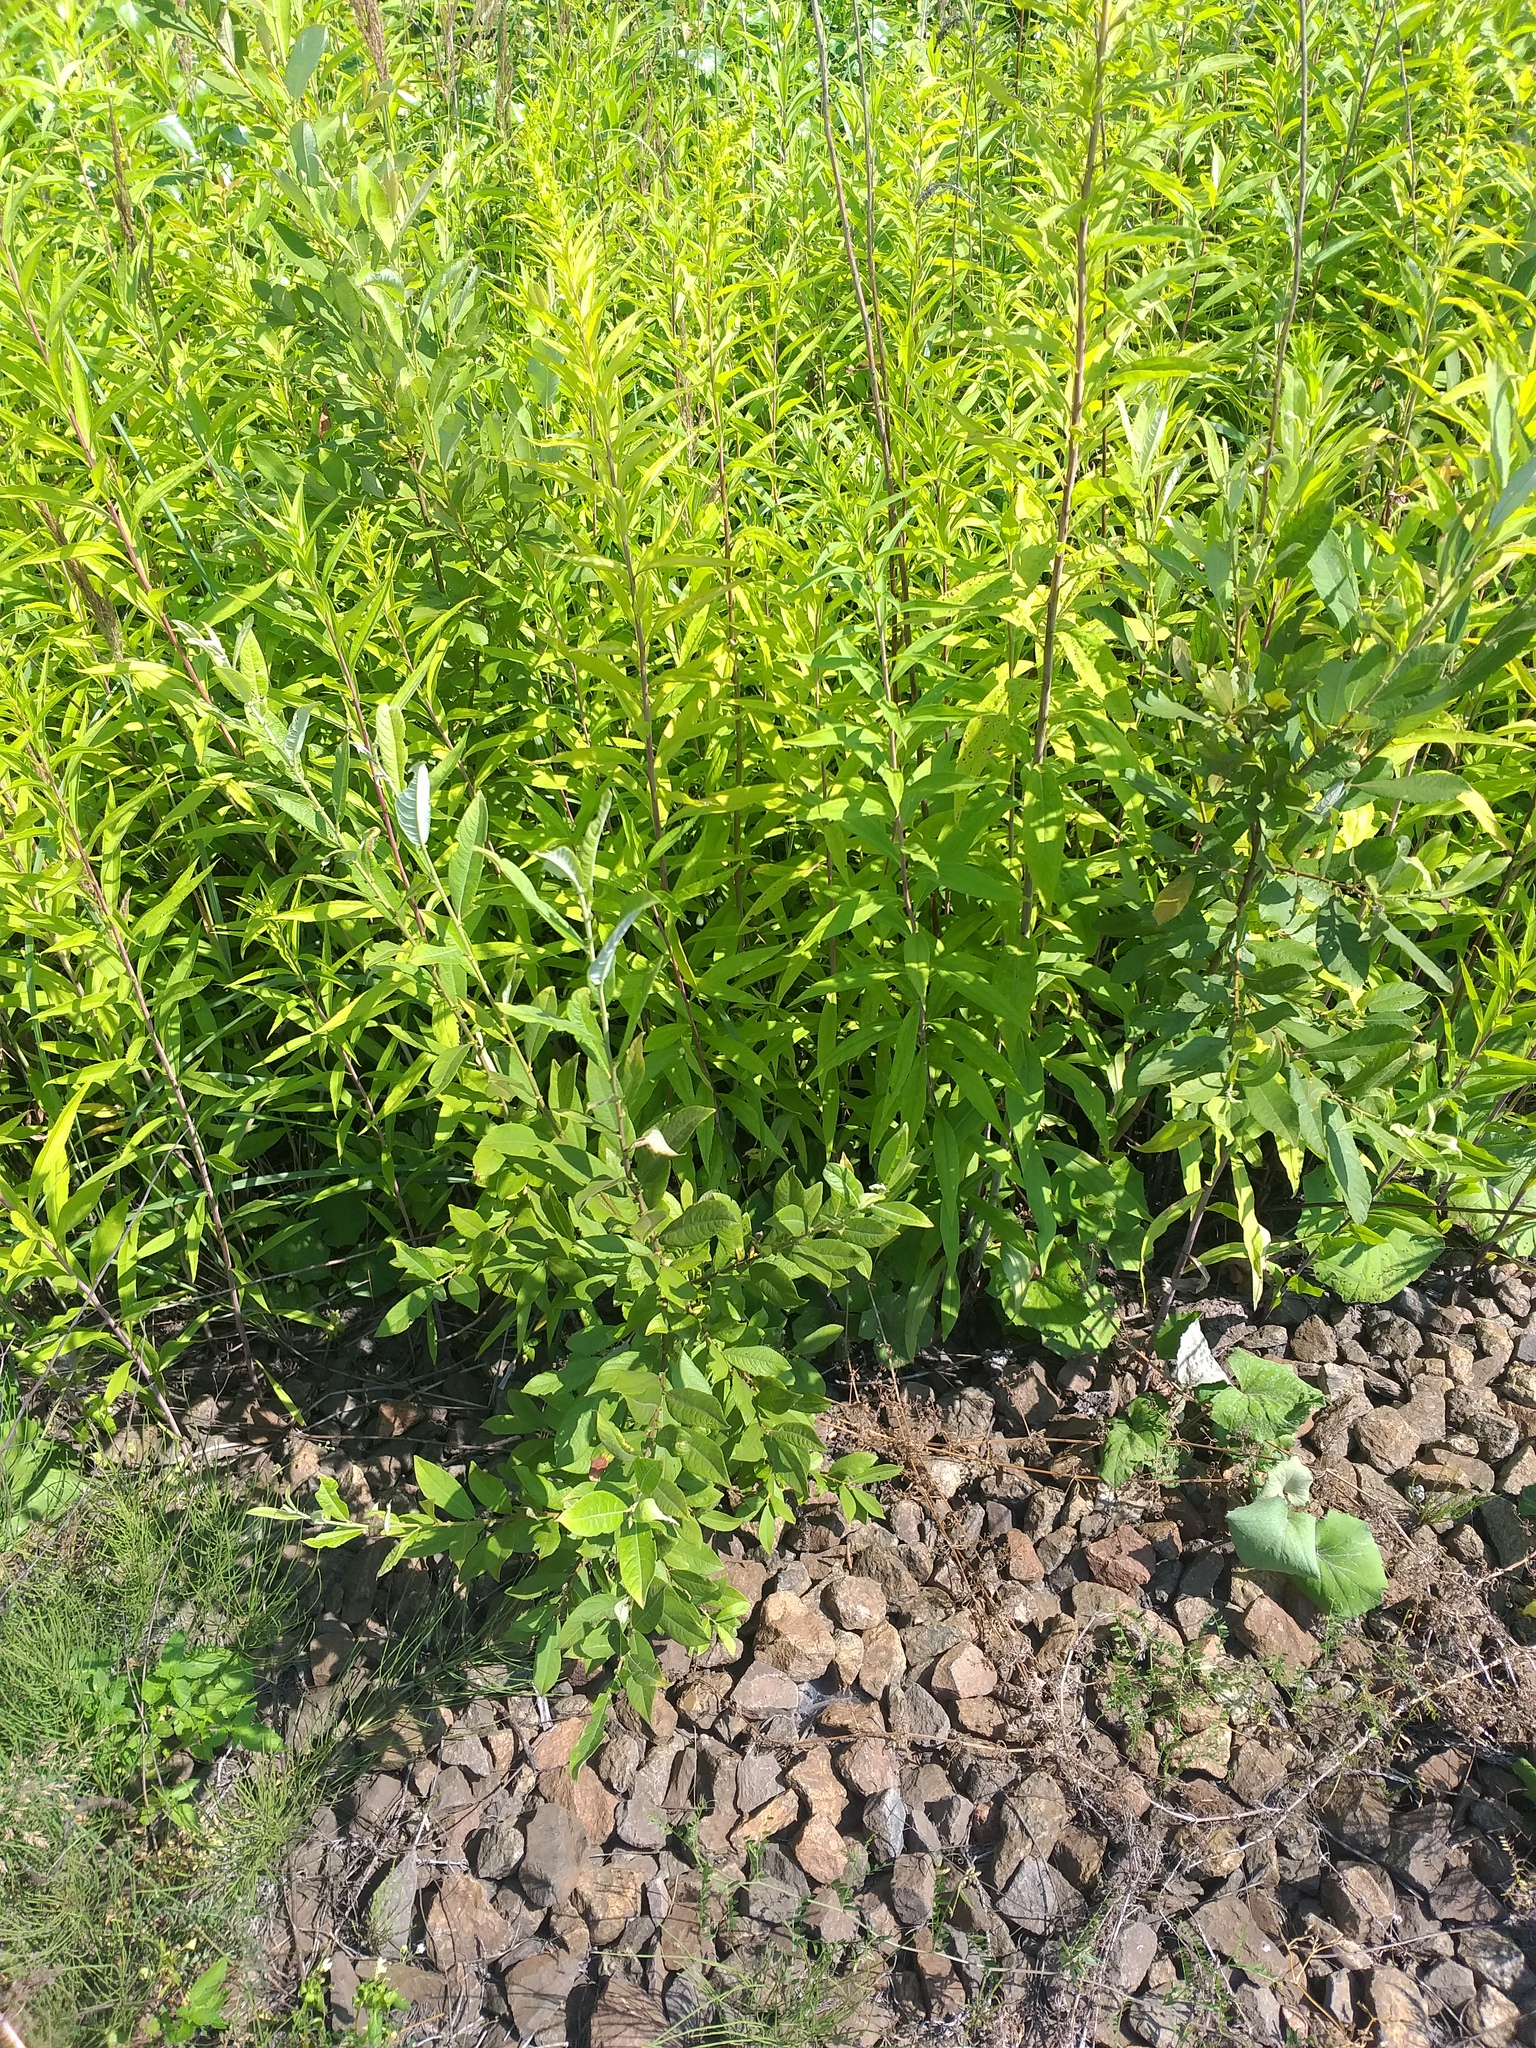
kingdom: Plantae
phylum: Tracheophyta
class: Magnoliopsida
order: Malpighiales
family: Salicaceae
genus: Salix
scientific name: Salix cinerea
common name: Common sallow
